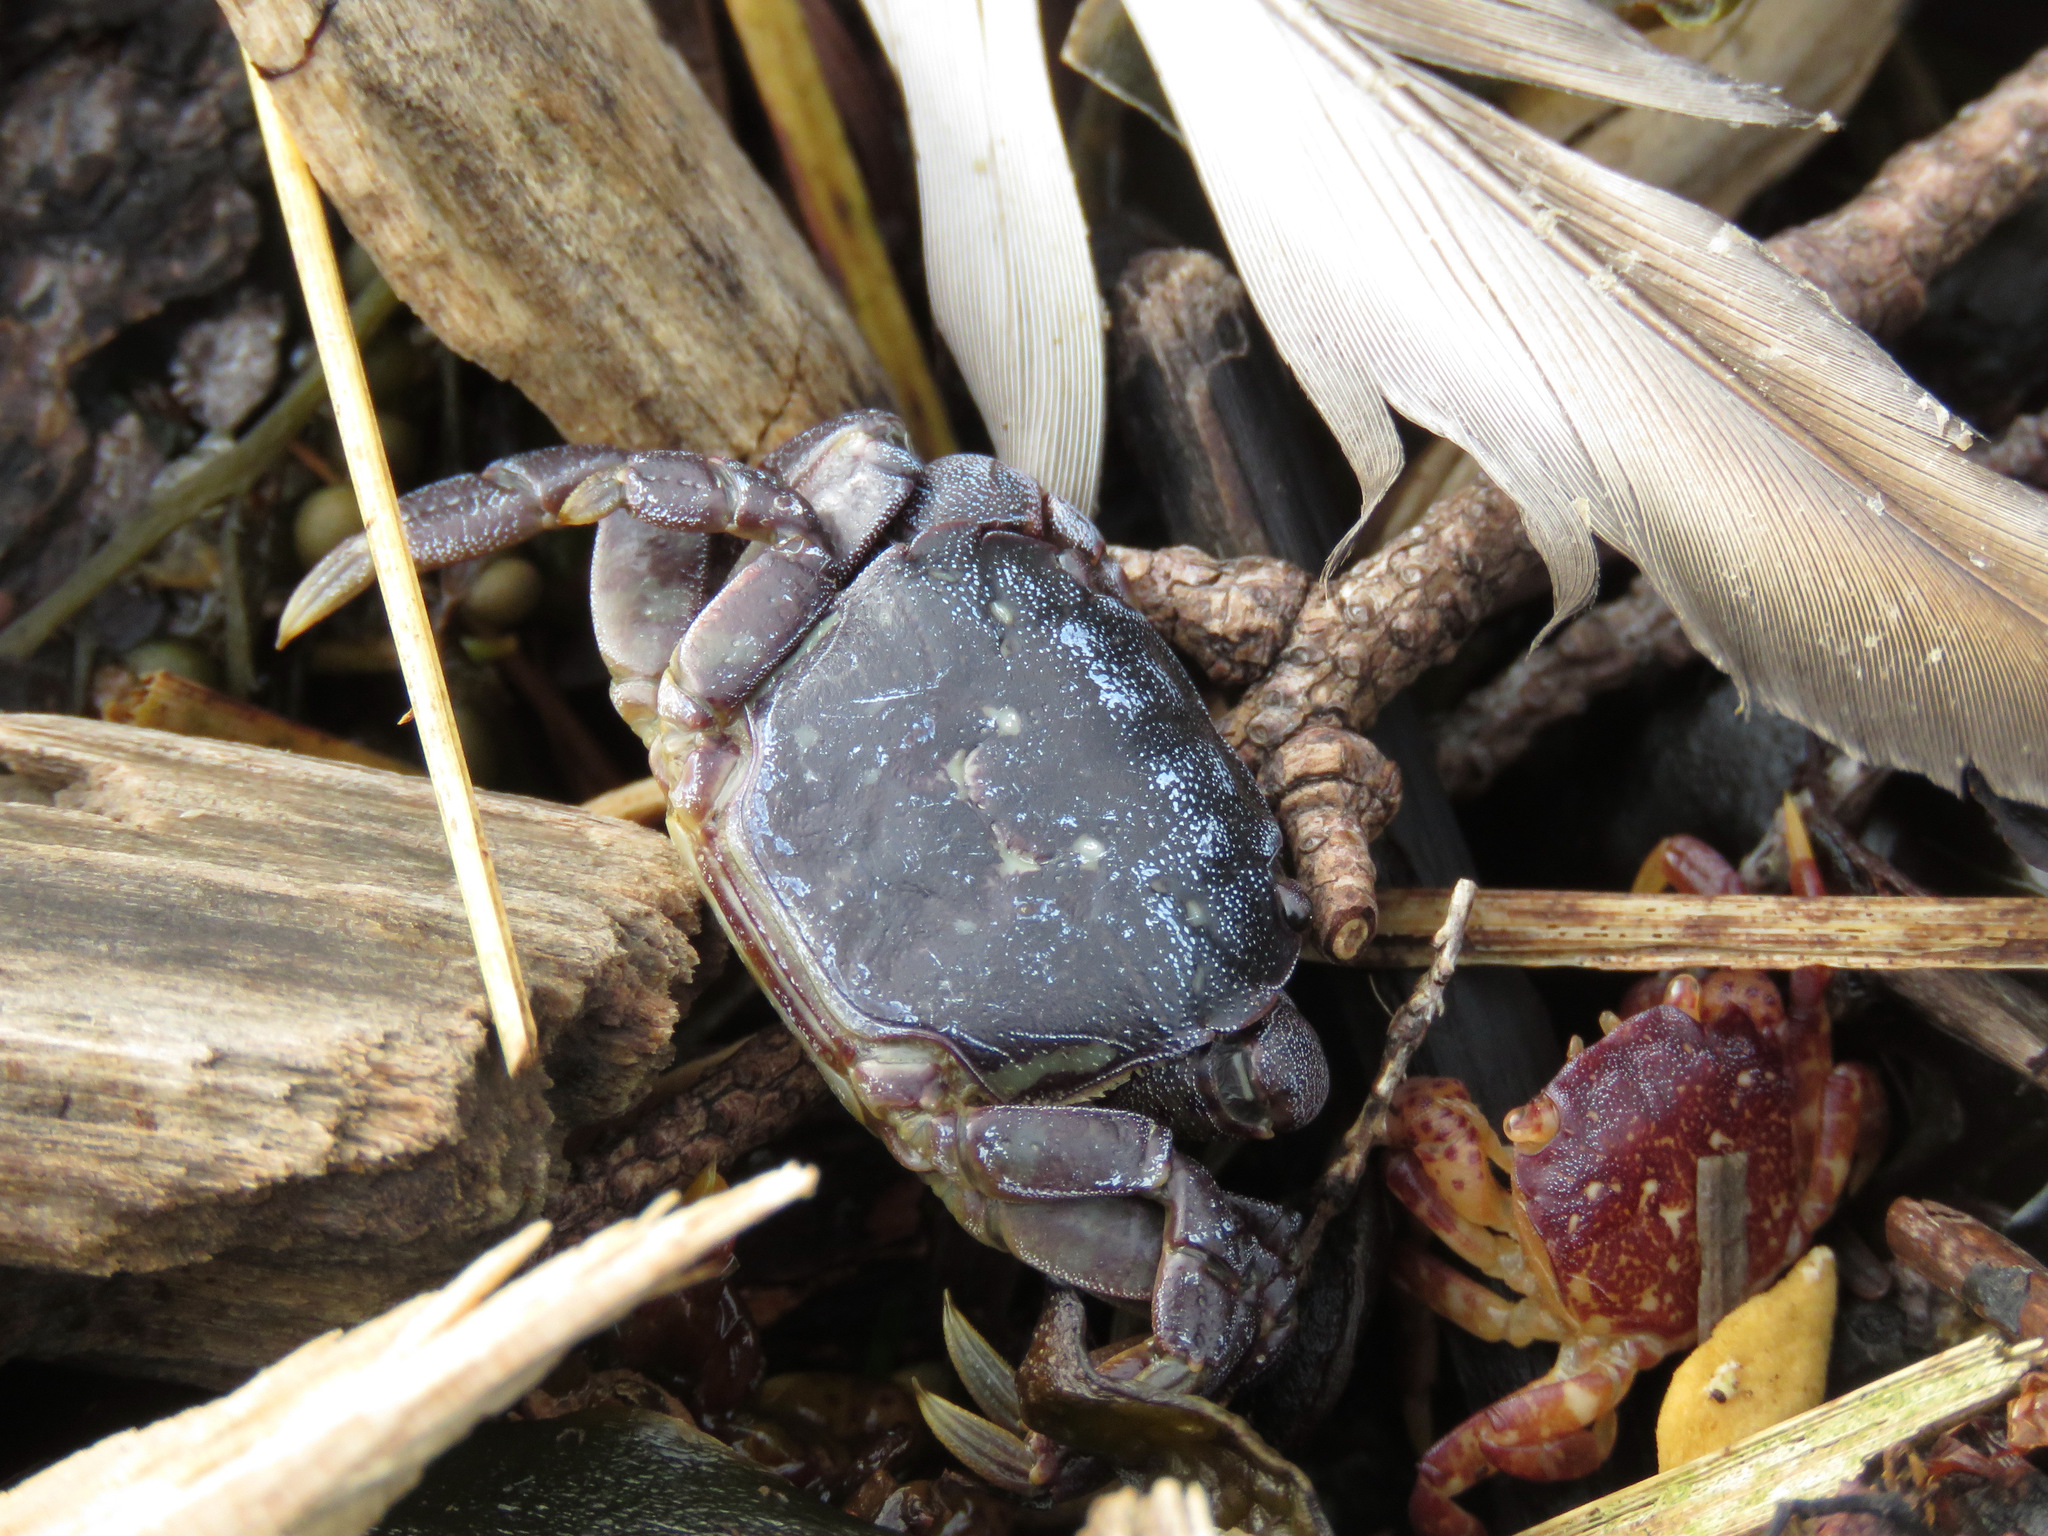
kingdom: Animalia
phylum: Arthropoda
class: Malacostraca
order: Decapoda
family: Varunidae
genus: Hemigrapsus
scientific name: Hemigrapsus nudus
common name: Purple shore crab
